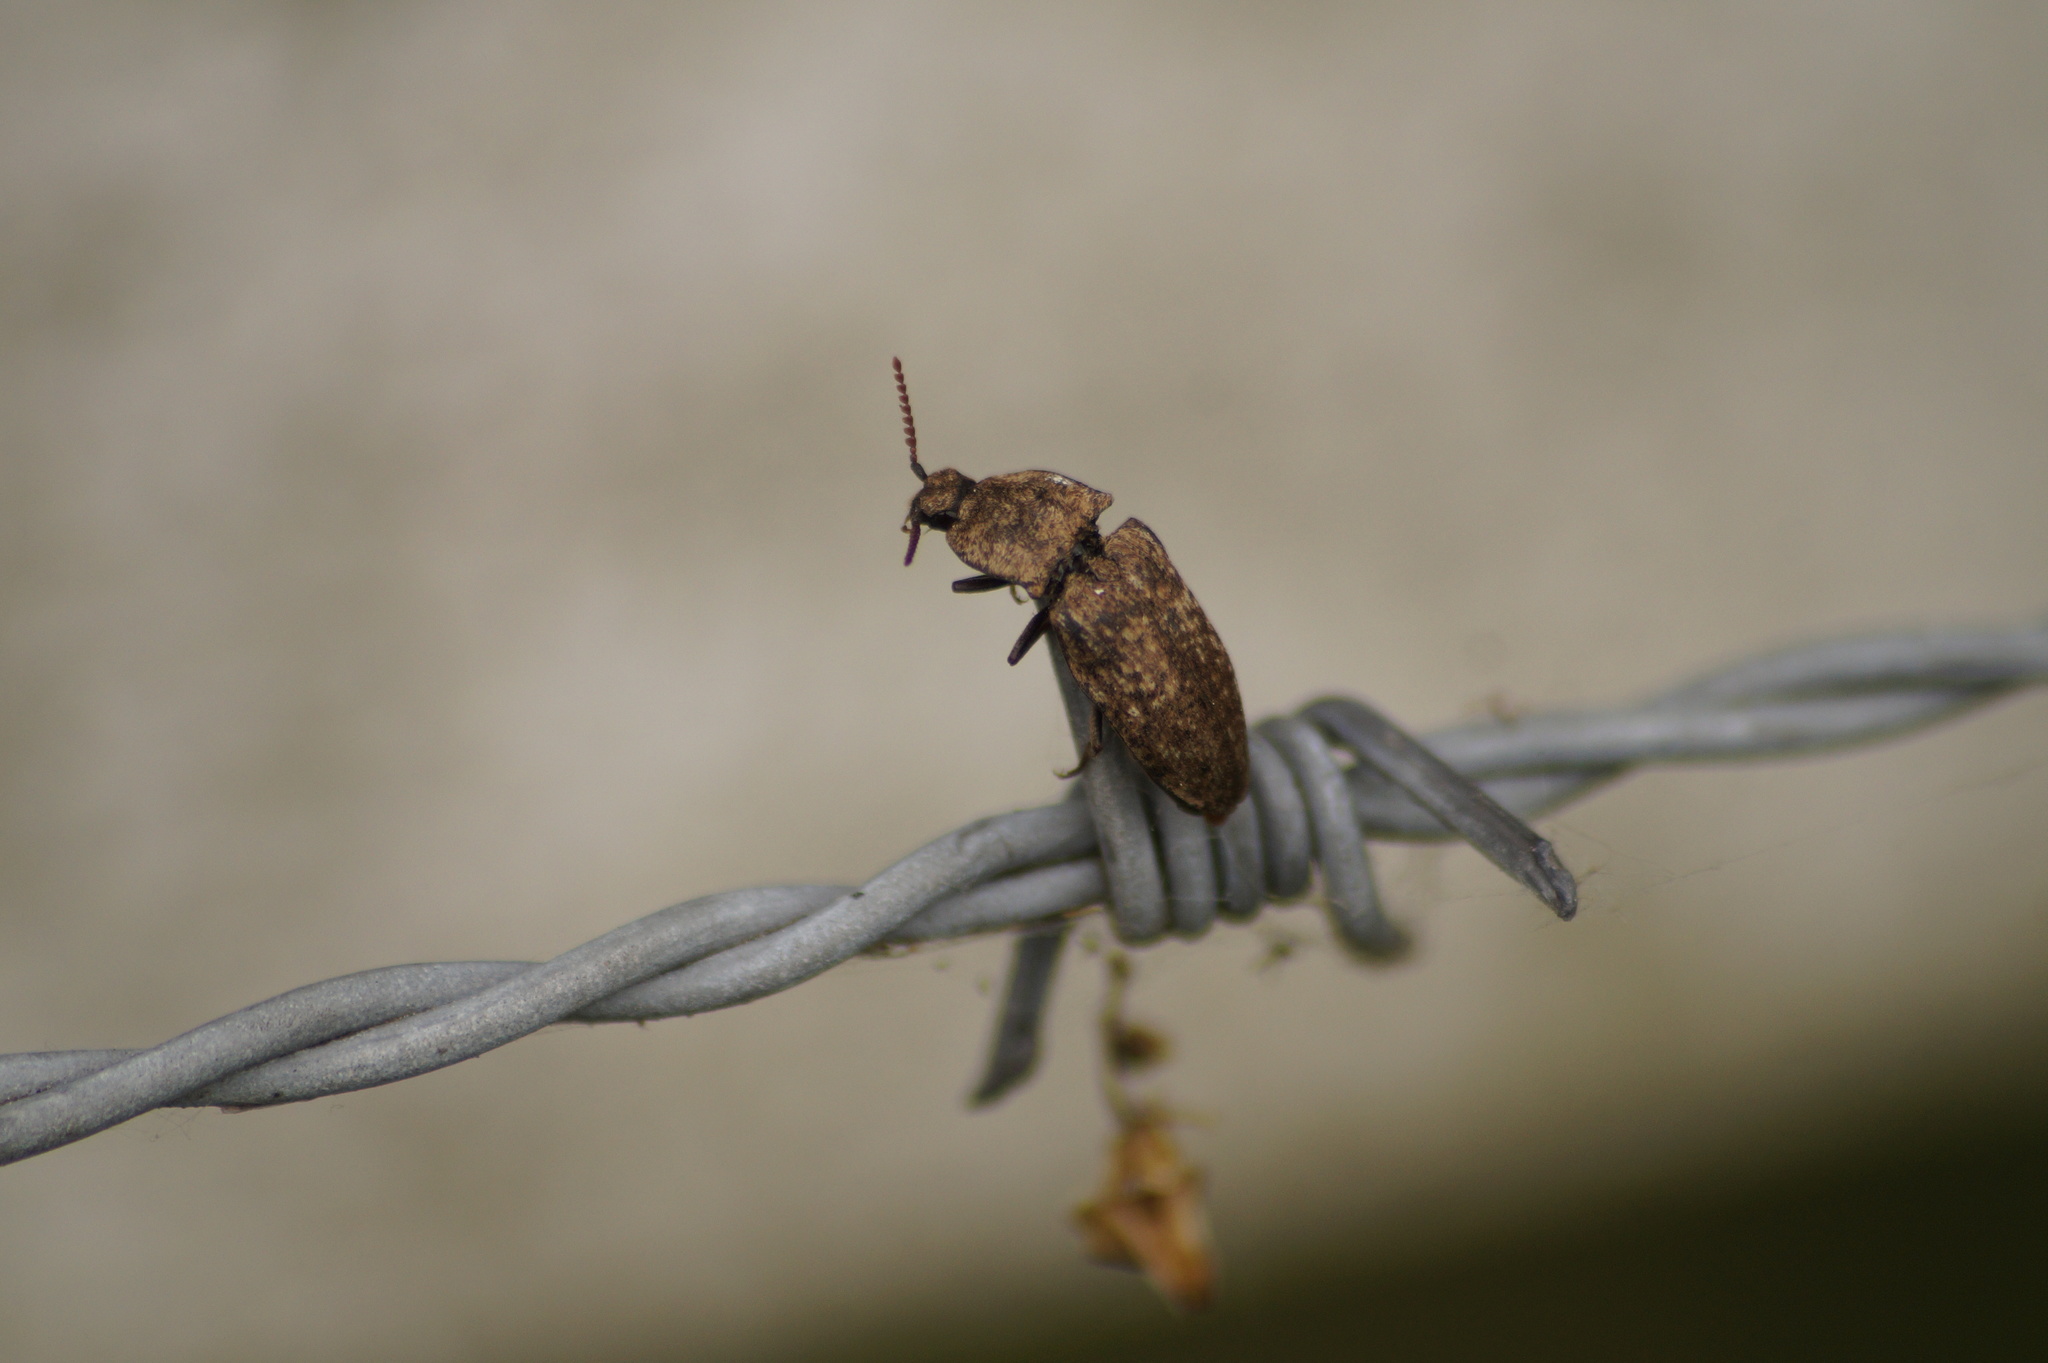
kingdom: Animalia
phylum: Arthropoda
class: Insecta
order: Coleoptera
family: Elateridae
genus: Agrypnus
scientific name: Agrypnus murinus
